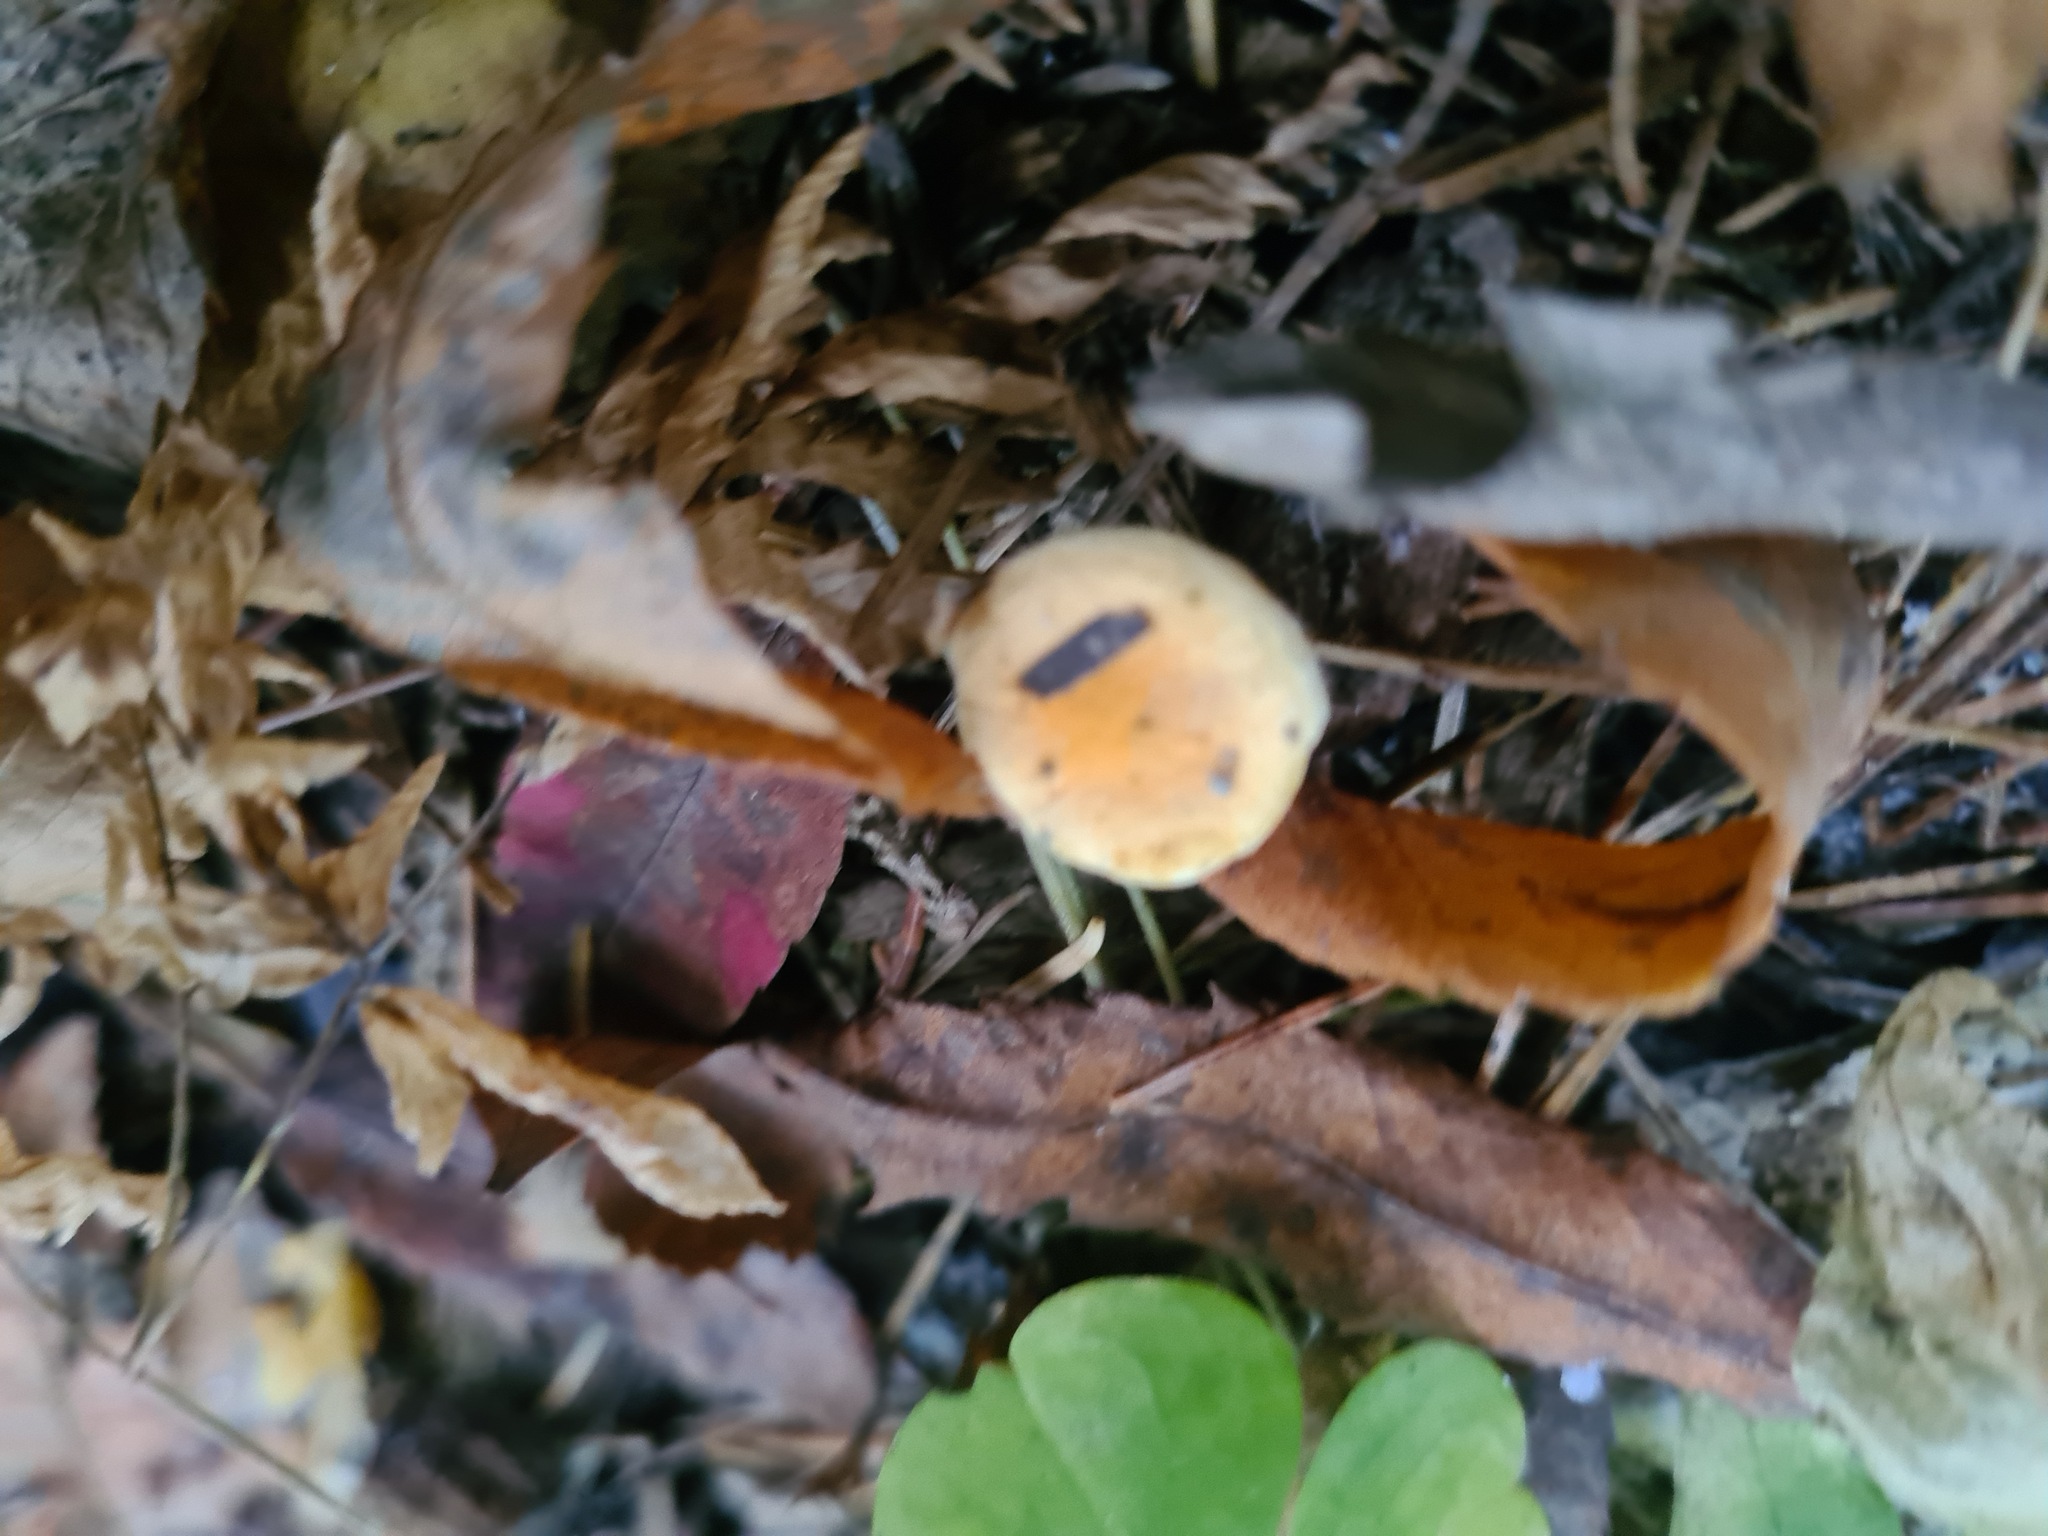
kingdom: Fungi
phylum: Basidiomycota
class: Agaricomycetes
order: Boletales
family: Hygrophoropsidaceae
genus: Hygrophoropsis
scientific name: Hygrophoropsis aurantiaca
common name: False chanterelle
